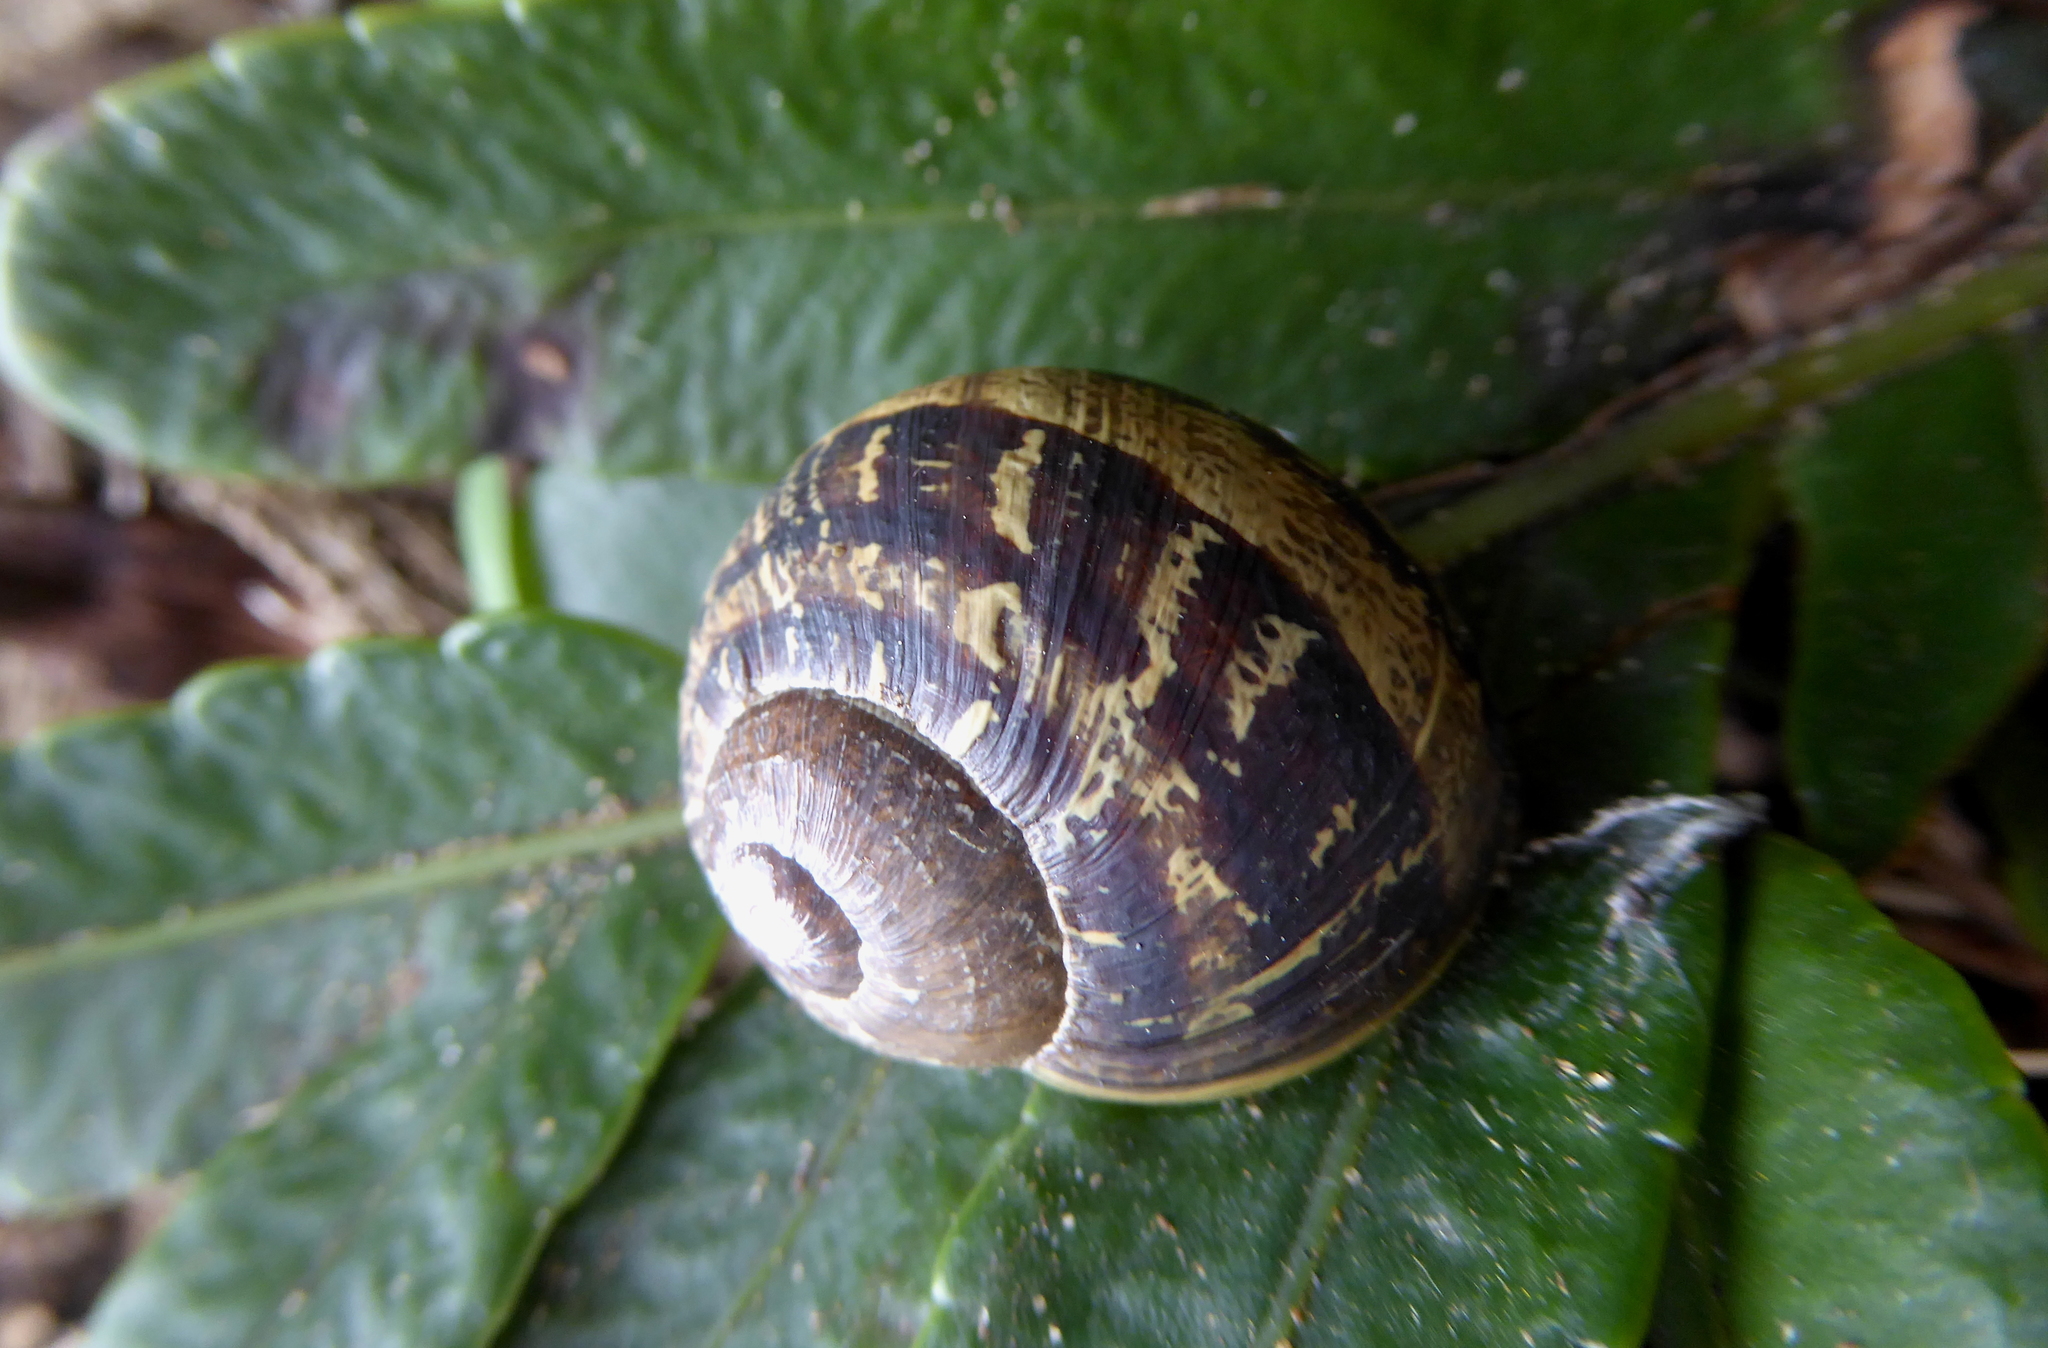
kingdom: Animalia
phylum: Mollusca
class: Gastropoda
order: Stylommatophora
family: Helicidae
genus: Cornu
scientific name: Cornu aspersum
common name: Brown garden snail
